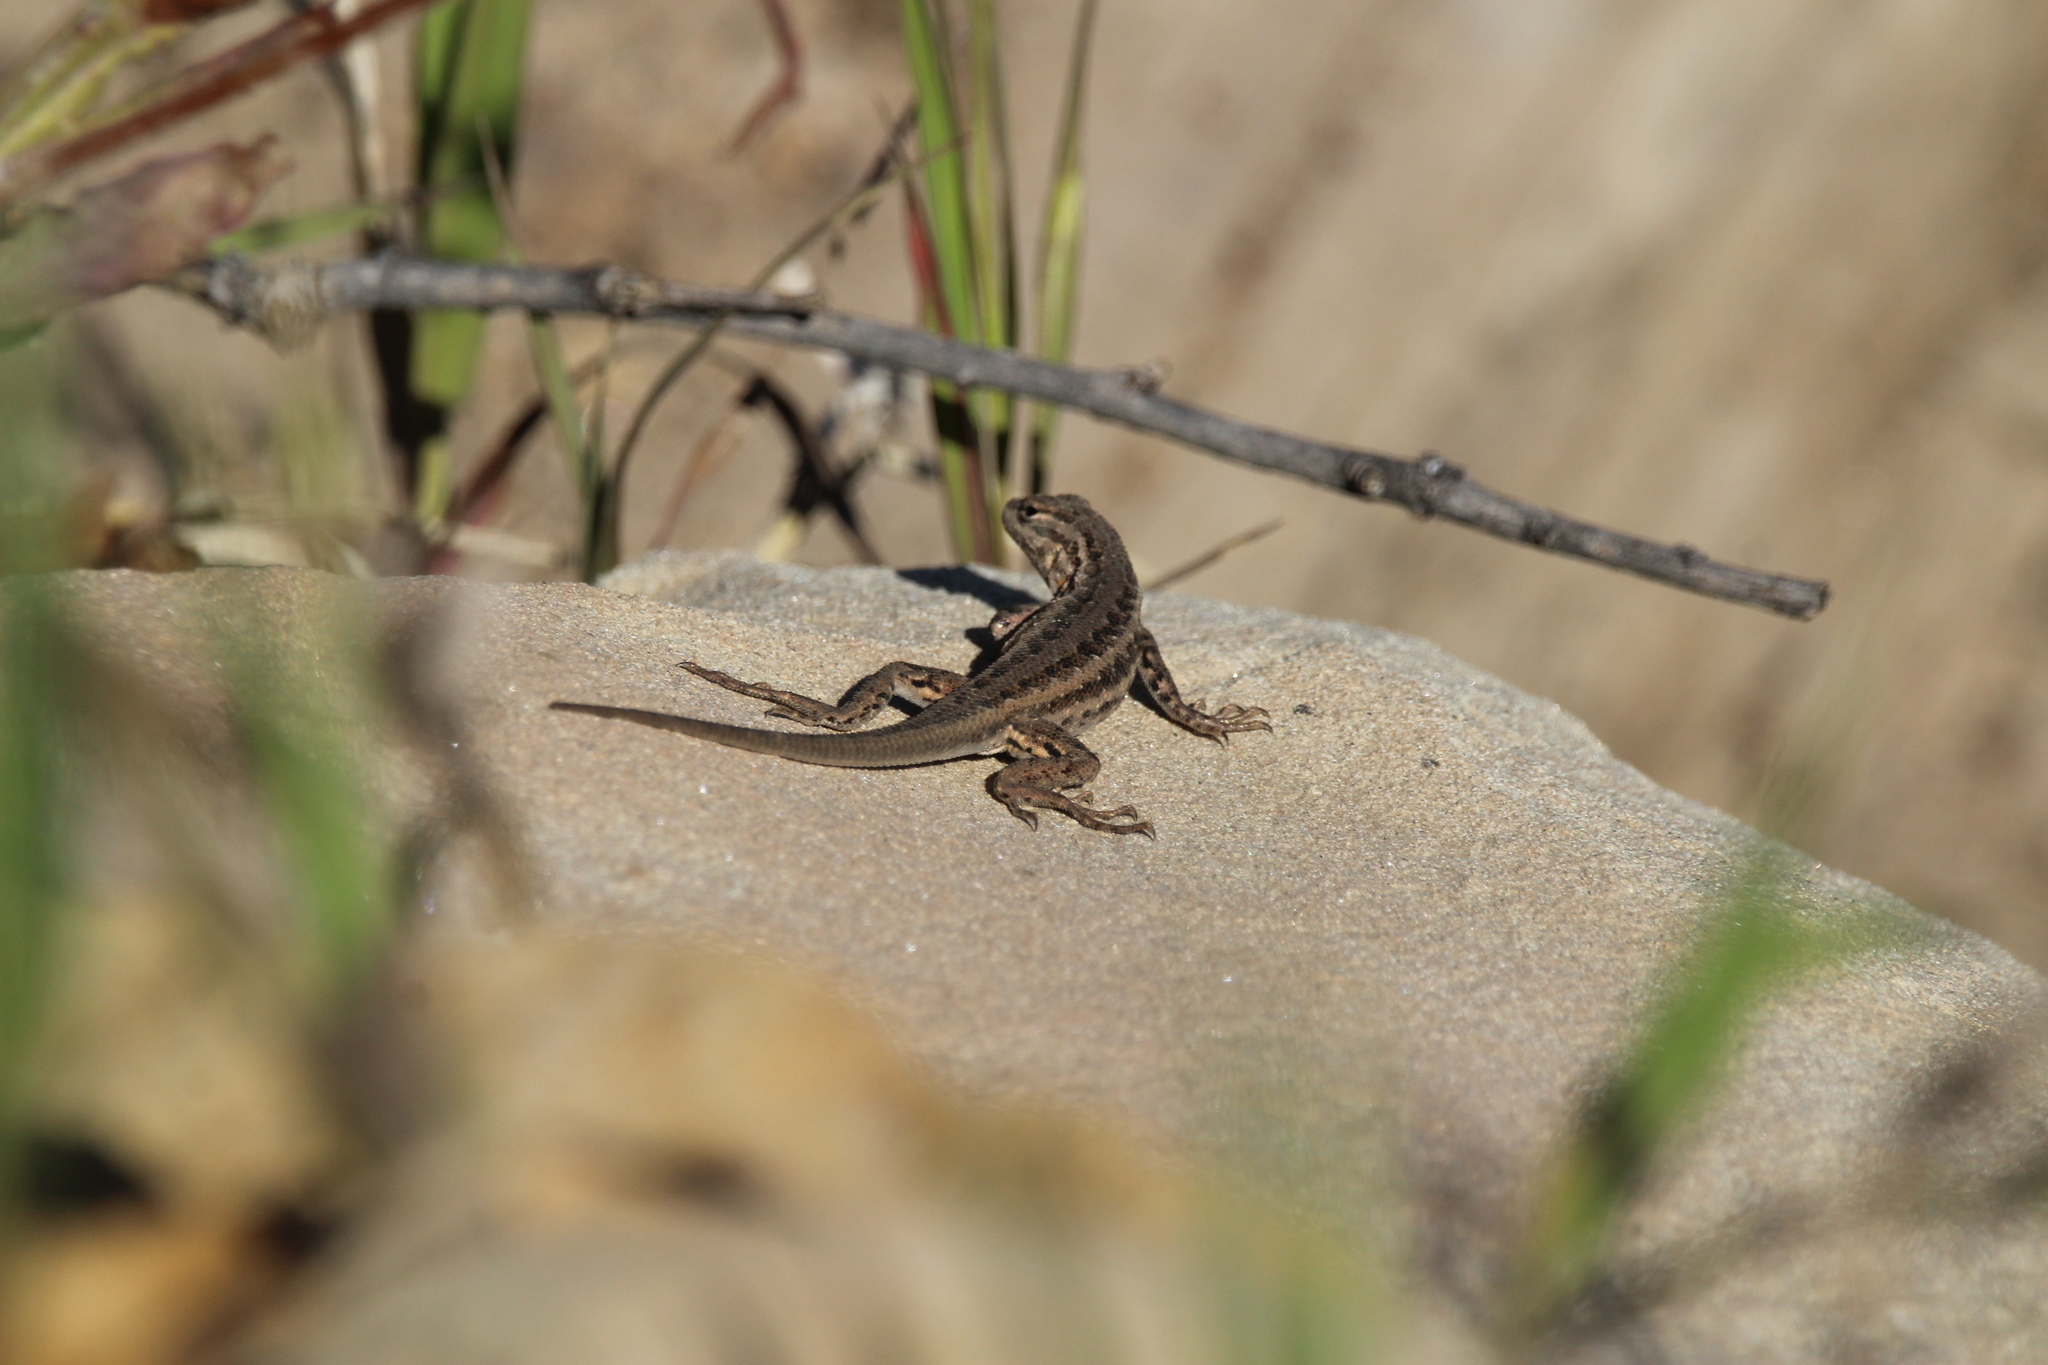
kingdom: Animalia
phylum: Chordata
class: Squamata
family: Phrynosomatidae
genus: Sceloporus
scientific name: Sceloporus graciosus
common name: Sagebrush lizard
